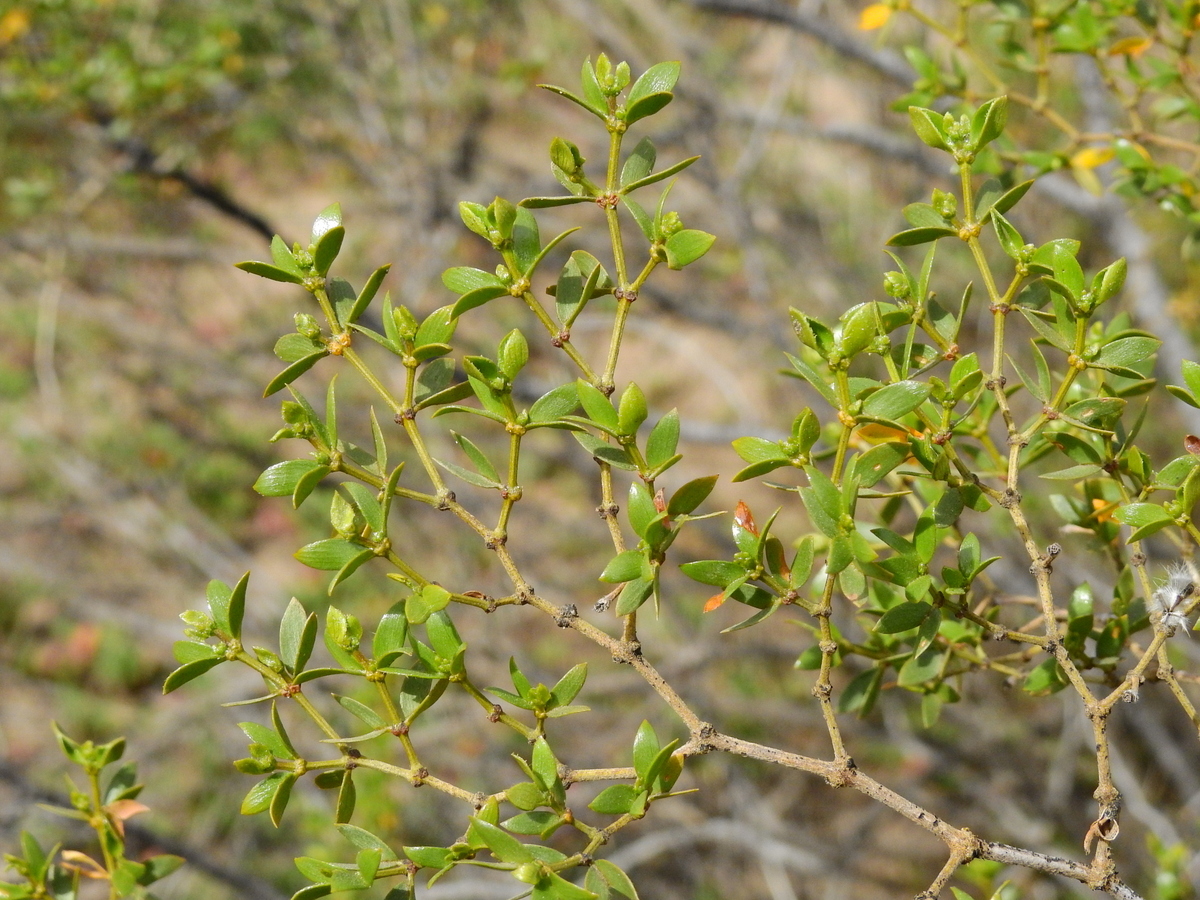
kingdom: Plantae
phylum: Tracheophyta
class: Magnoliopsida
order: Zygophyllales
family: Zygophyllaceae
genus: Larrea
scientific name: Larrea divaricata
